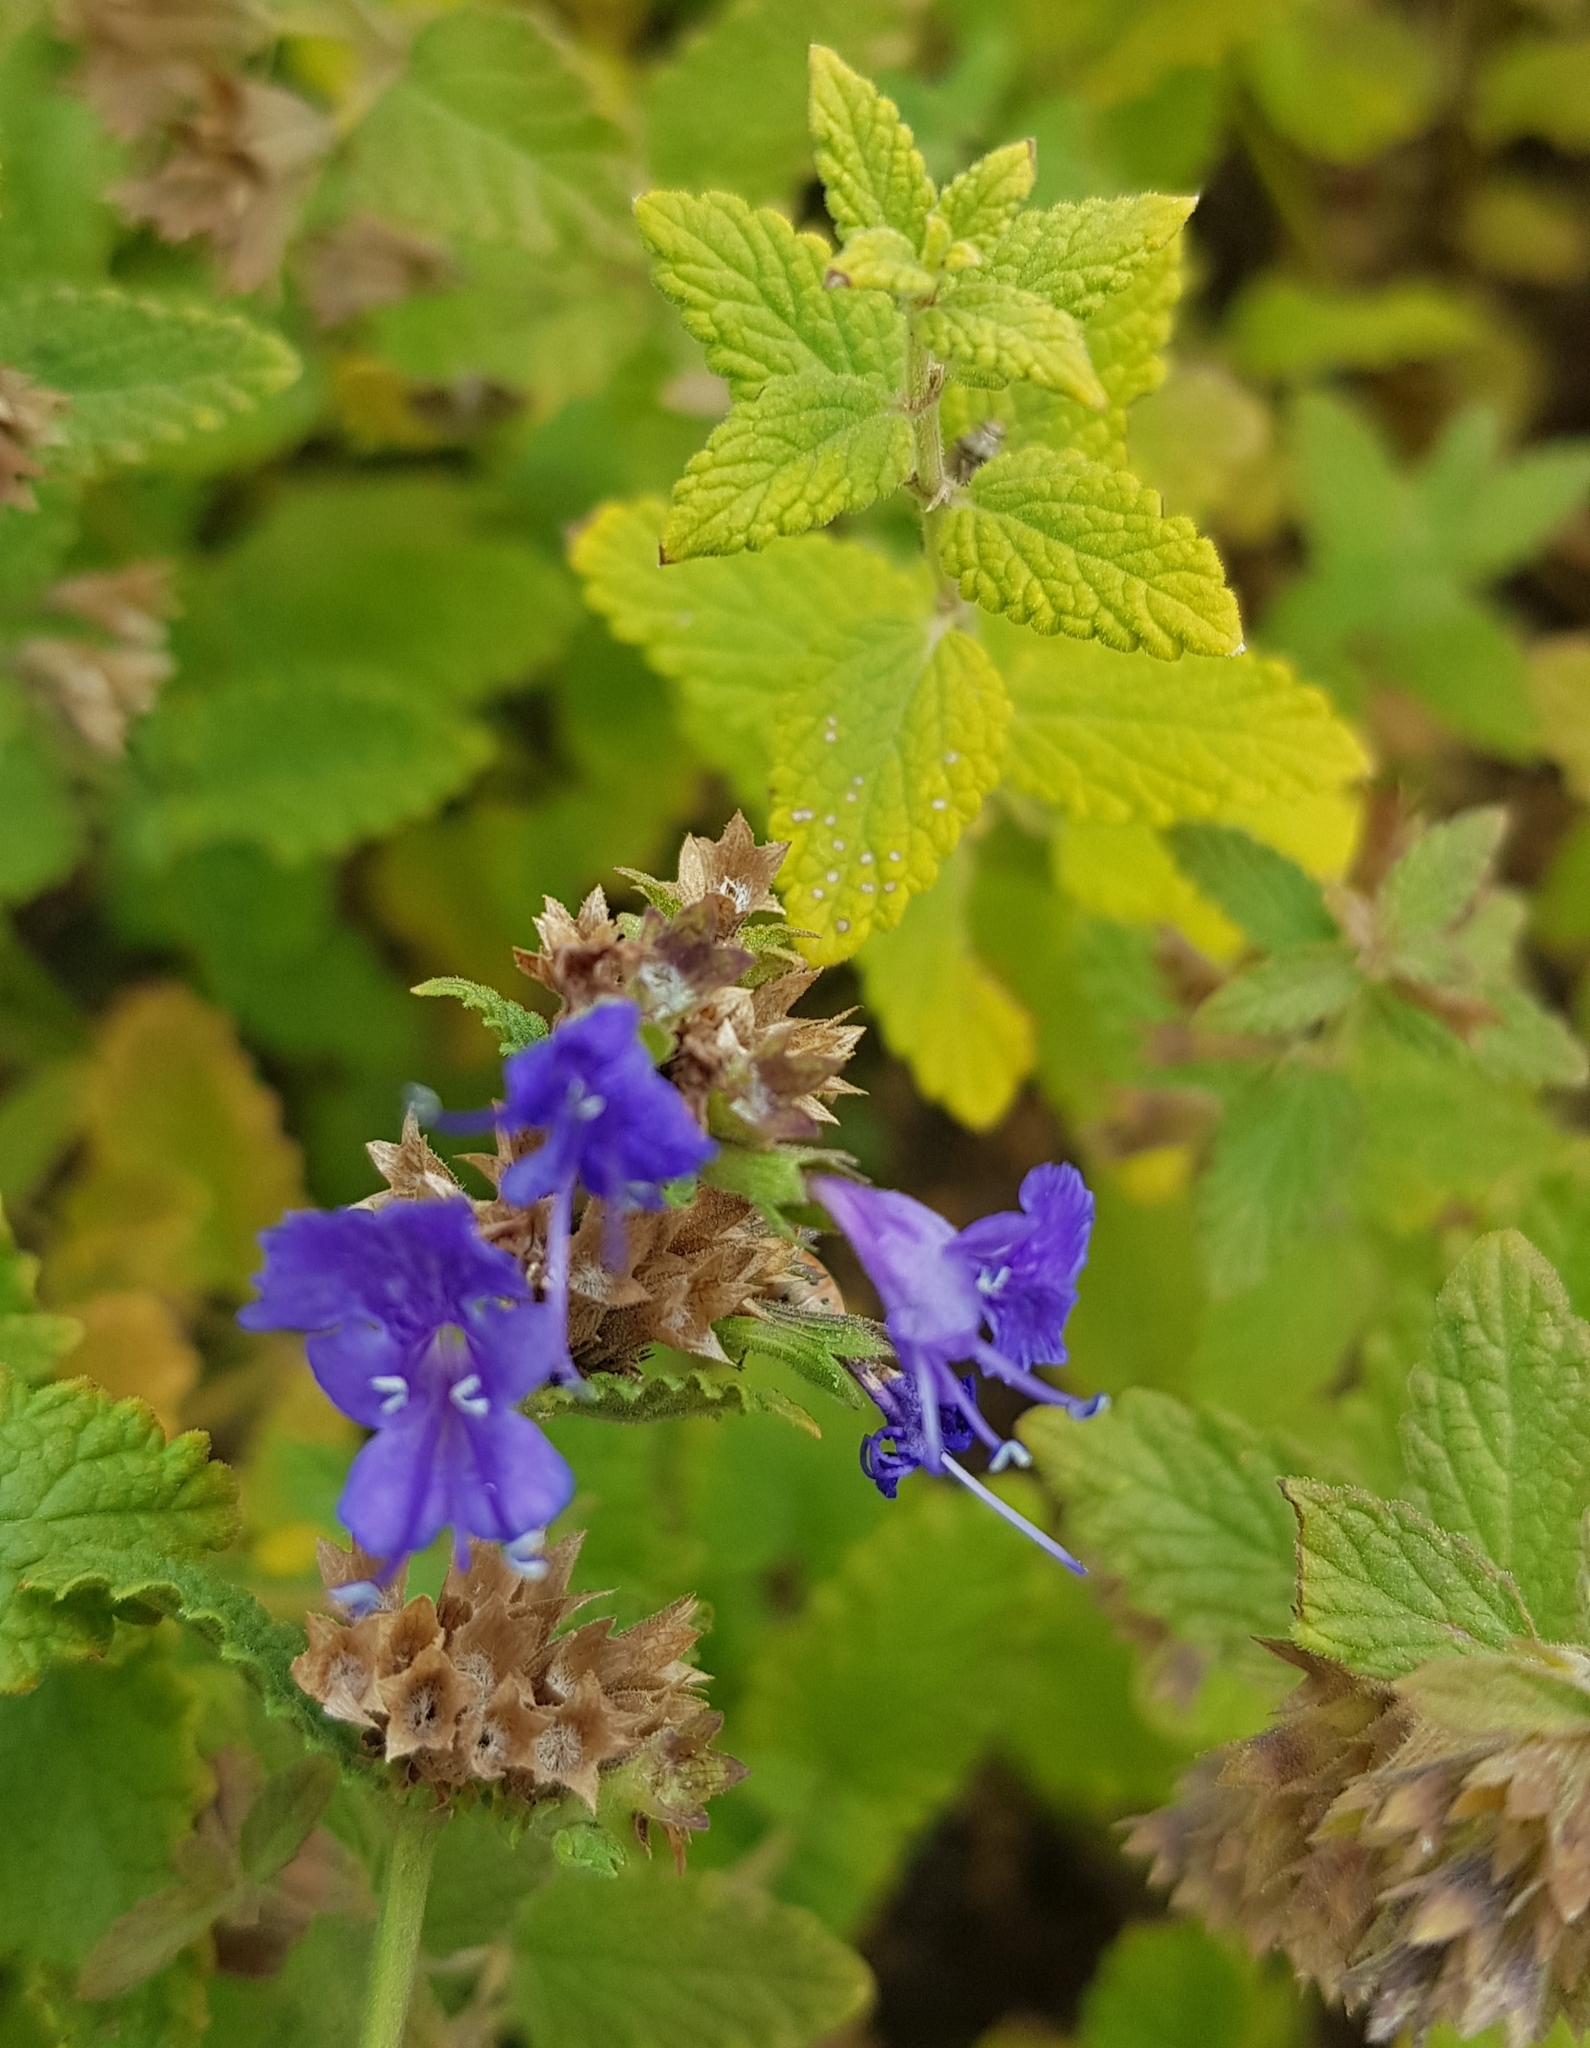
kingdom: Plantae
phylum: Tracheophyta
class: Magnoliopsida
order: Lamiales
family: Lamiaceae
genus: Nepeta
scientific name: Nepeta lophanthus
